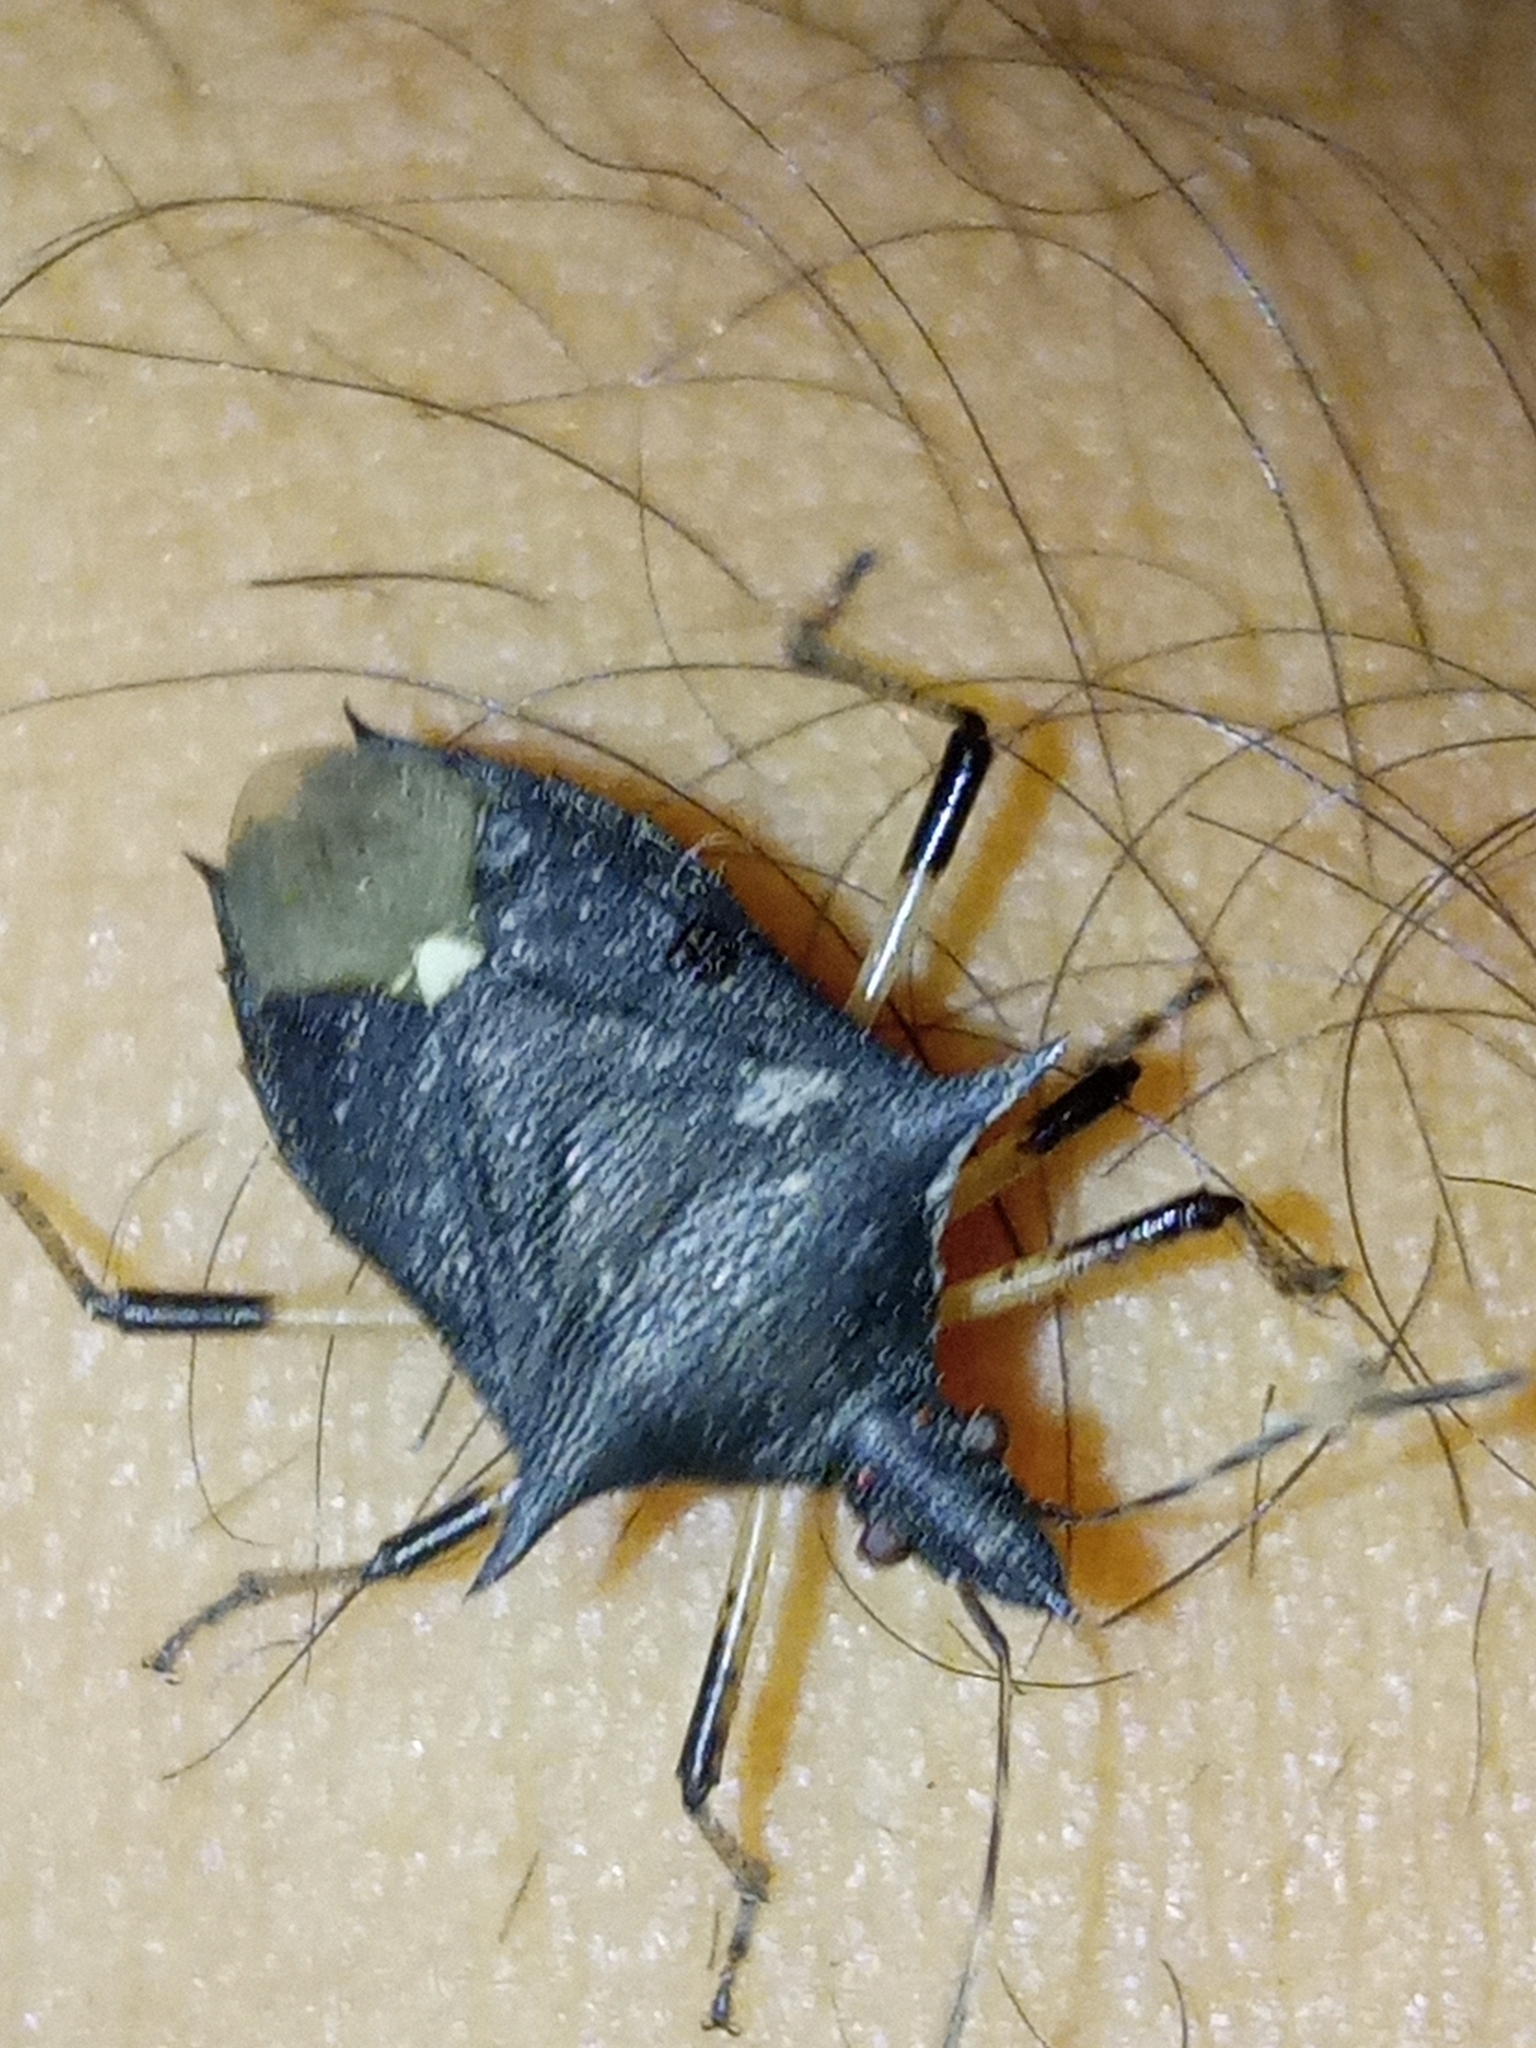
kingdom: Animalia
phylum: Arthropoda
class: Insecta
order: Hemiptera
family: Pentatomidae
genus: Proxys
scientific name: Proxys punctulatus
